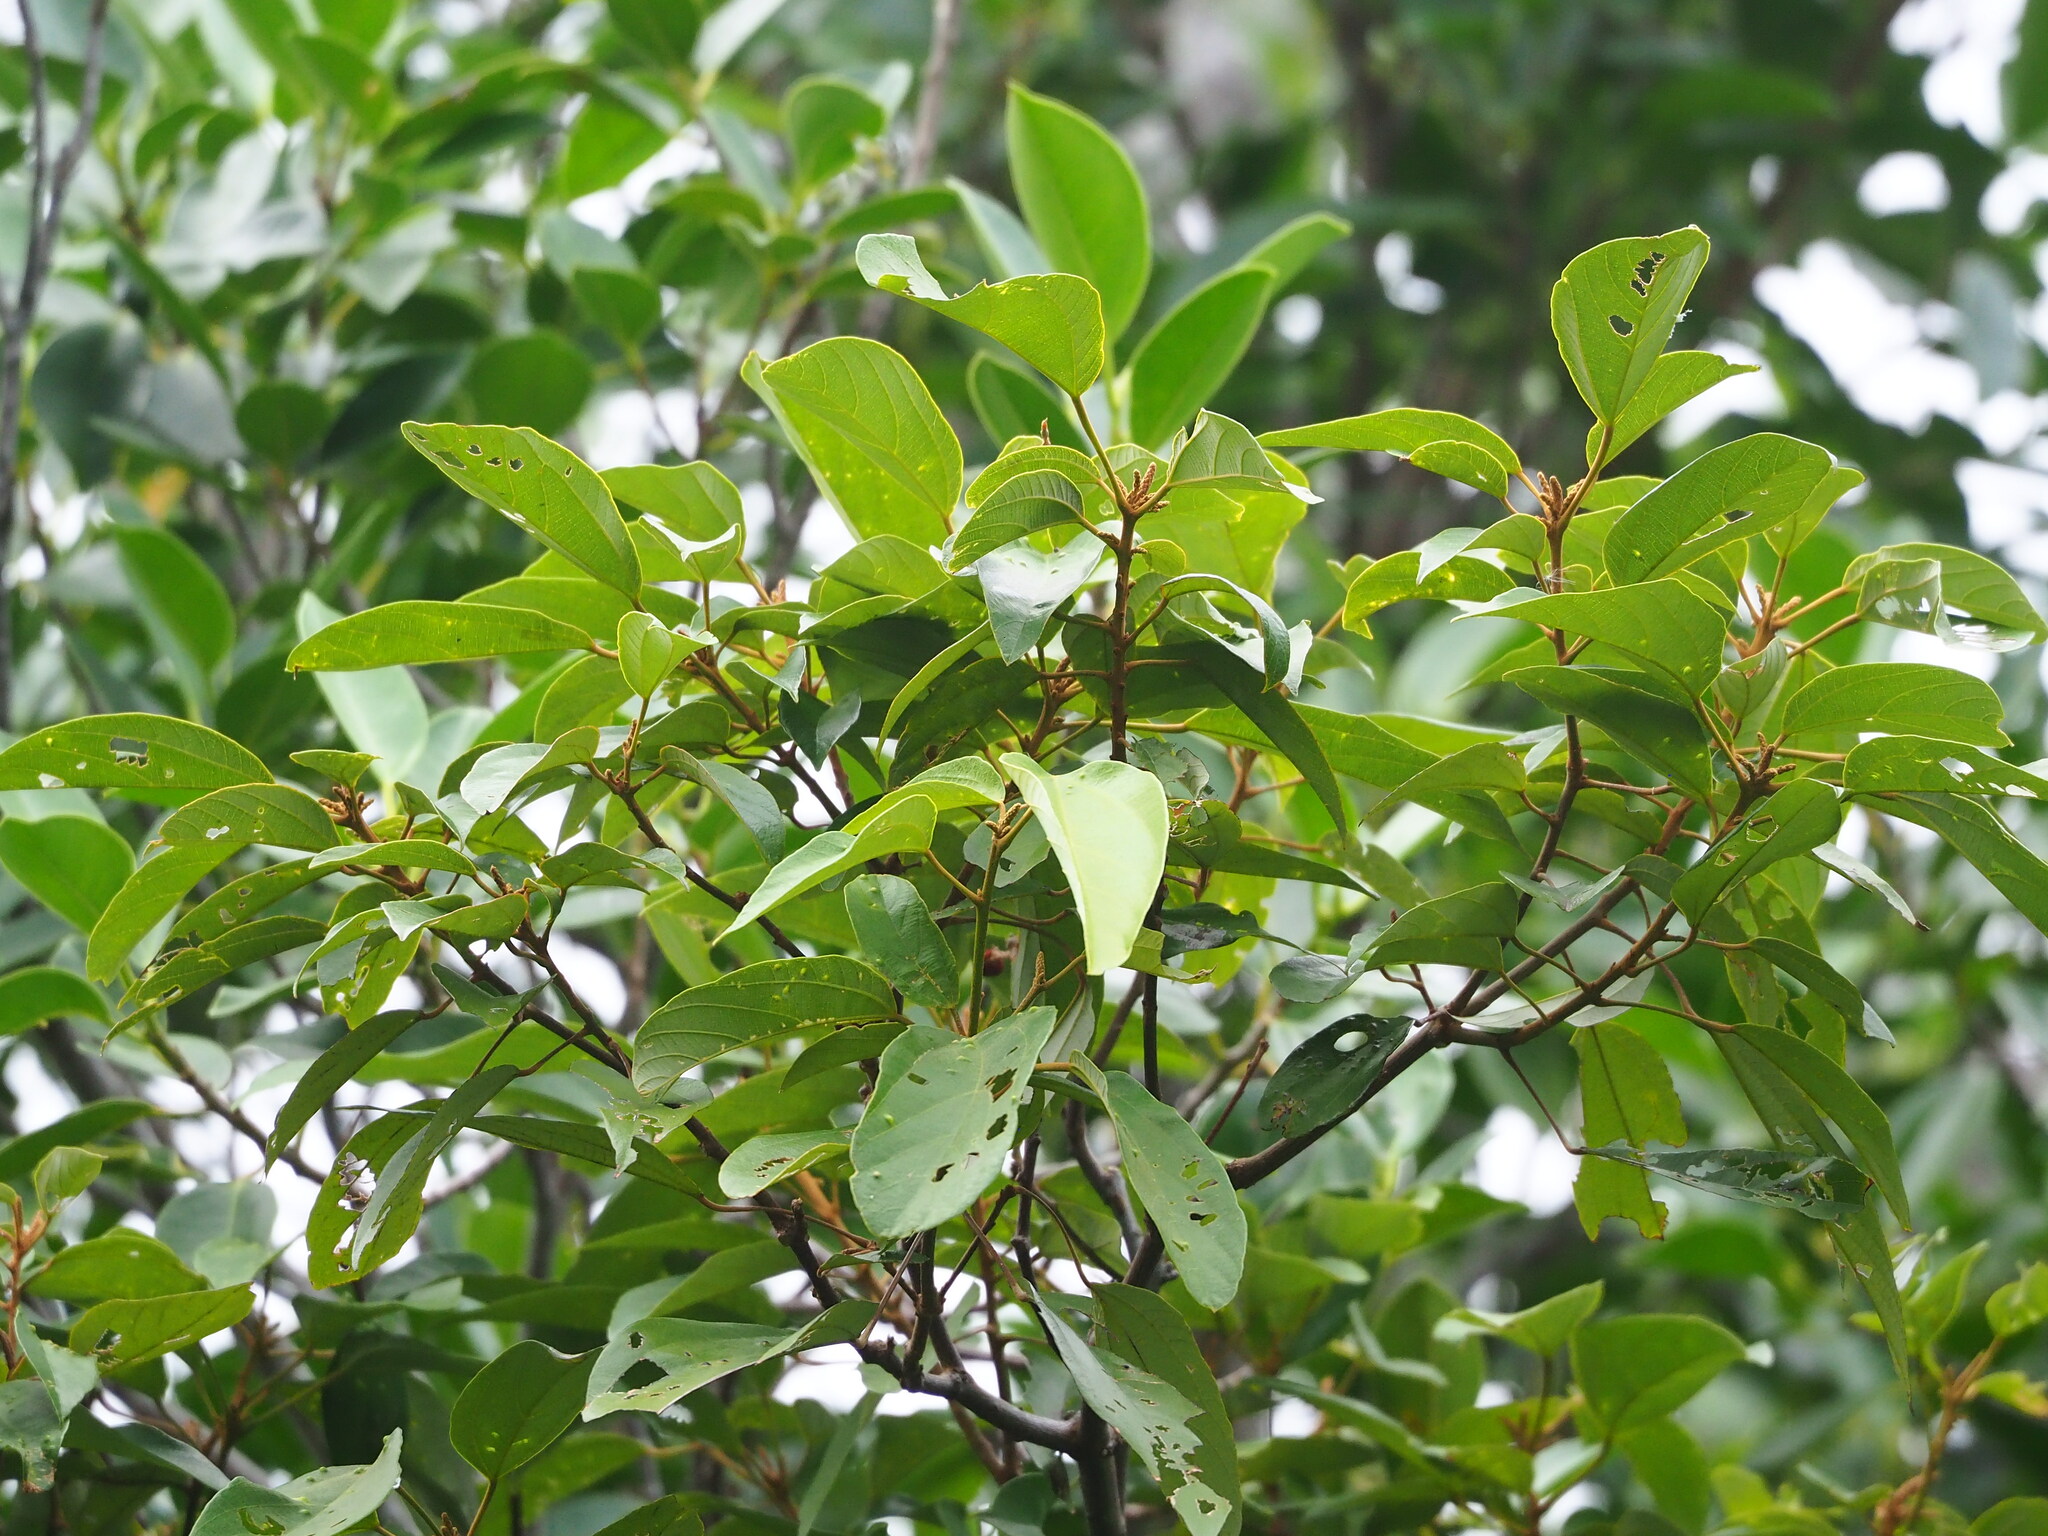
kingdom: Plantae
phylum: Tracheophyta
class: Magnoliopsida
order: Malpighiales
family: Euphorbiaceae
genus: Mallotus
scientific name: Mallotus philippensis
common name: Kamala tree
